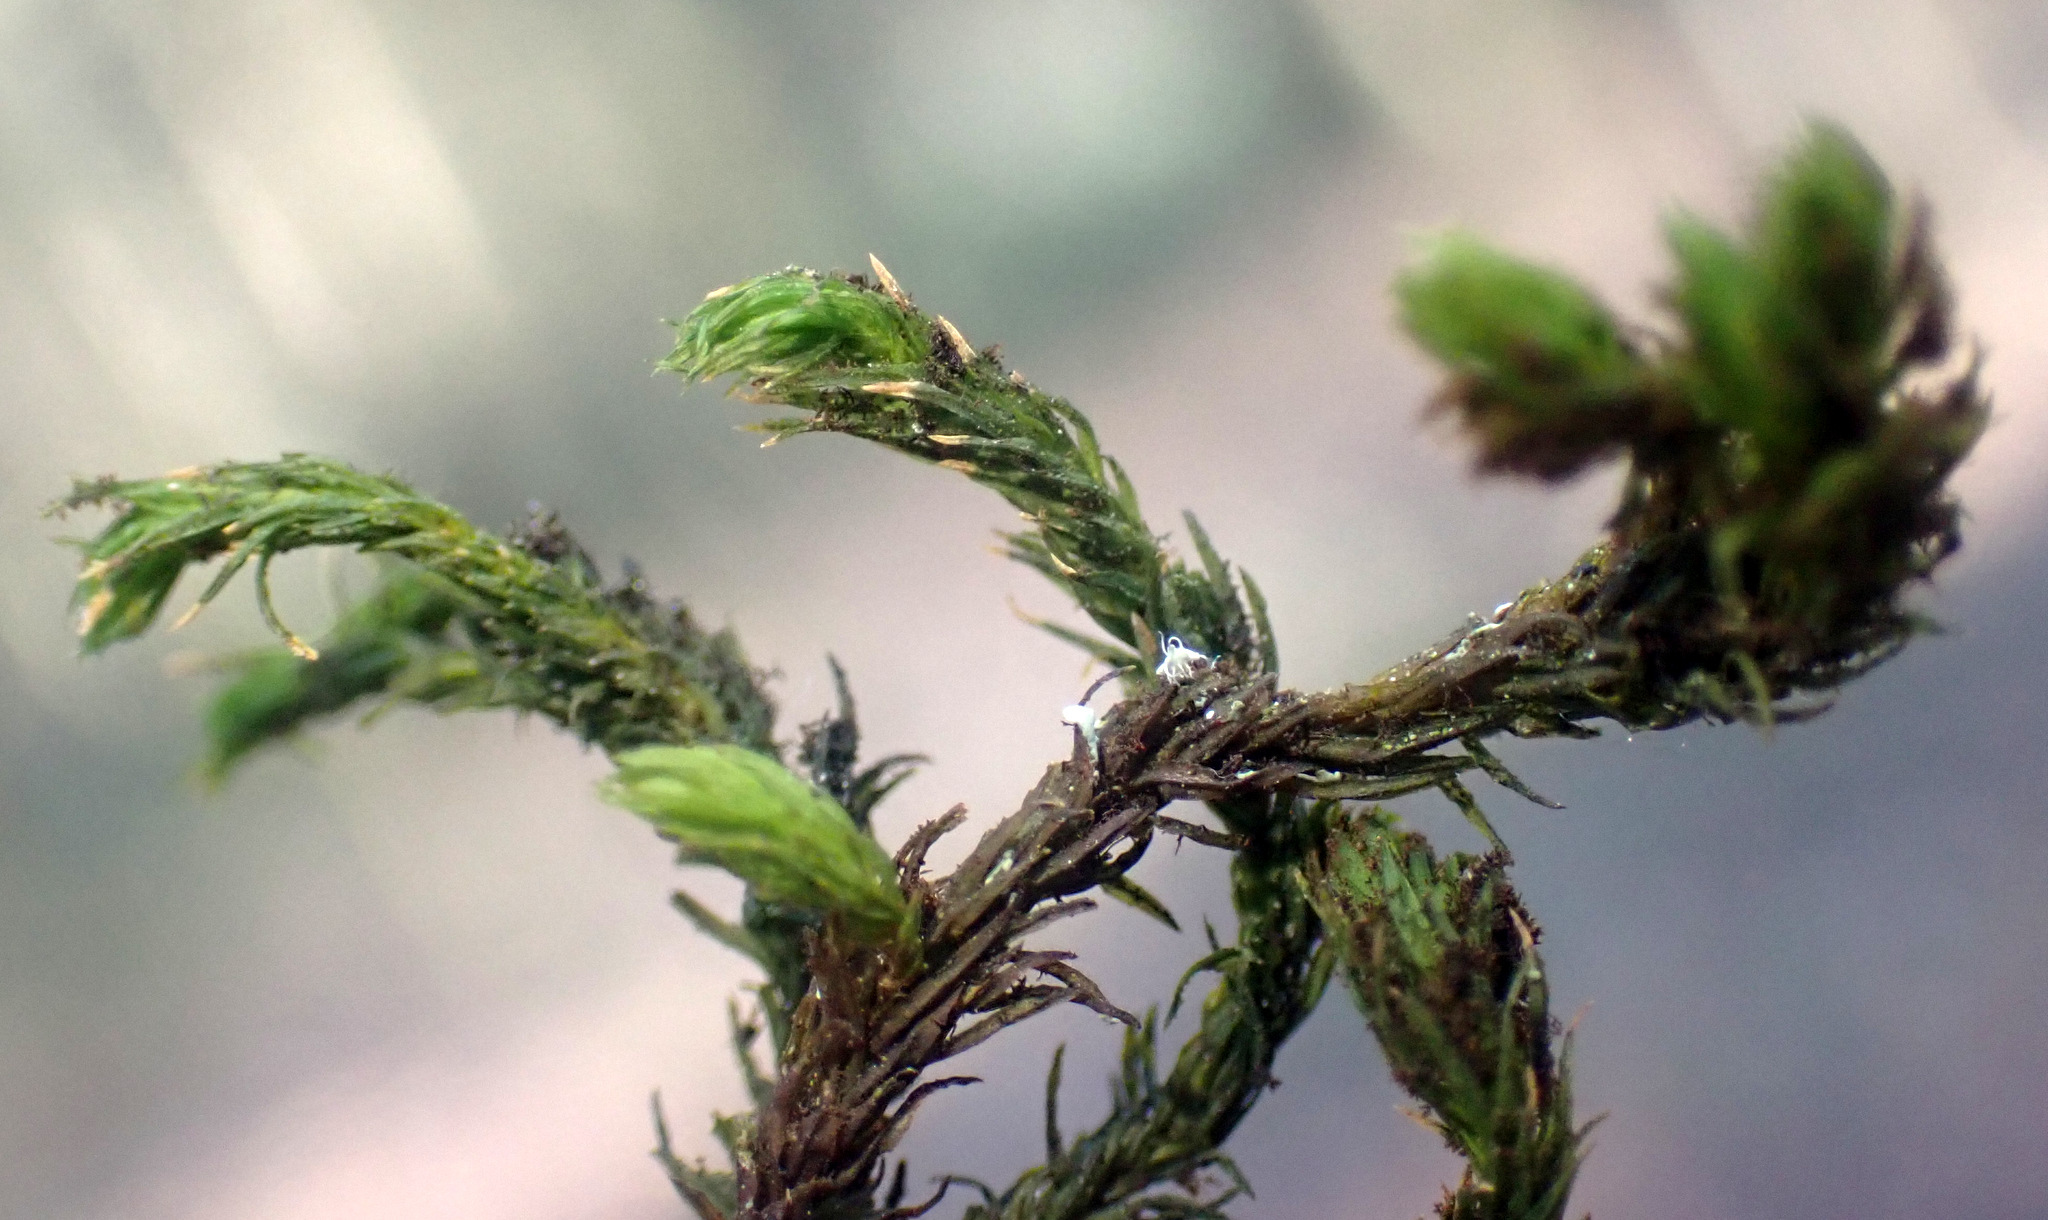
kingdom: Plantae
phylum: Bryophyta
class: Bryopsida
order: Orthotrichales
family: Orthotrichaceae
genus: Pulvigera
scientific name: Pulvigera lyellii
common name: Lyell's bristle-moss
